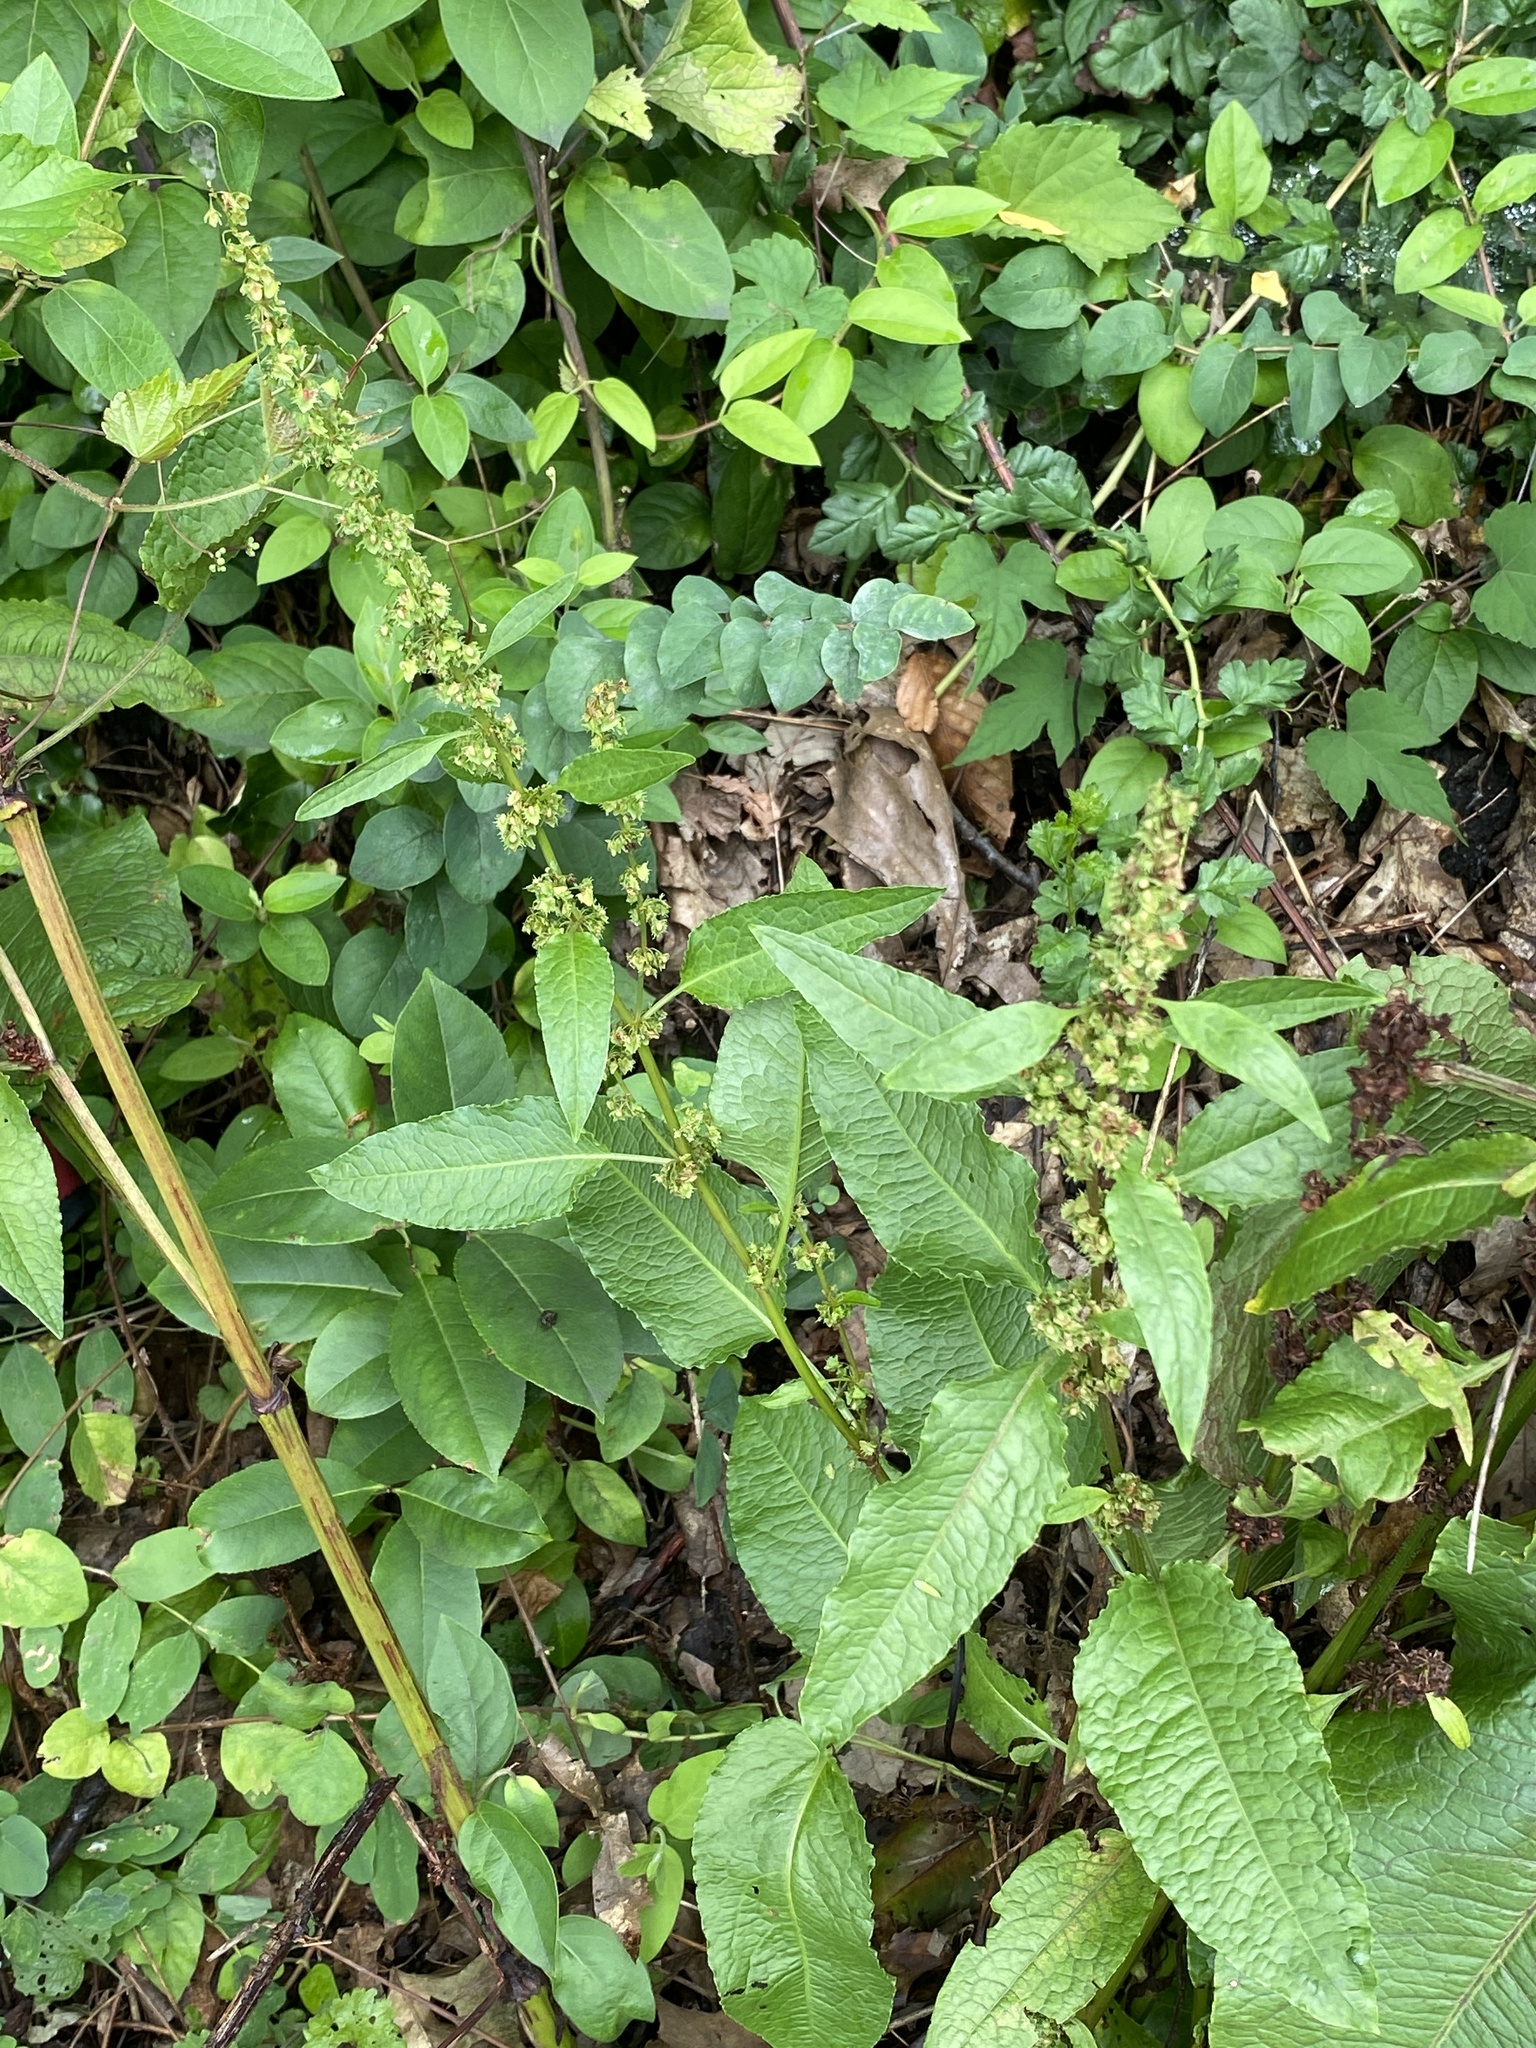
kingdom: Plantae
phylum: Tracheophyta
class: Magnoliopsida
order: Caryophyllales
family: Polygonaceae
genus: Rumex
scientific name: Rumex obtusifolius
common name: Bitter dock
